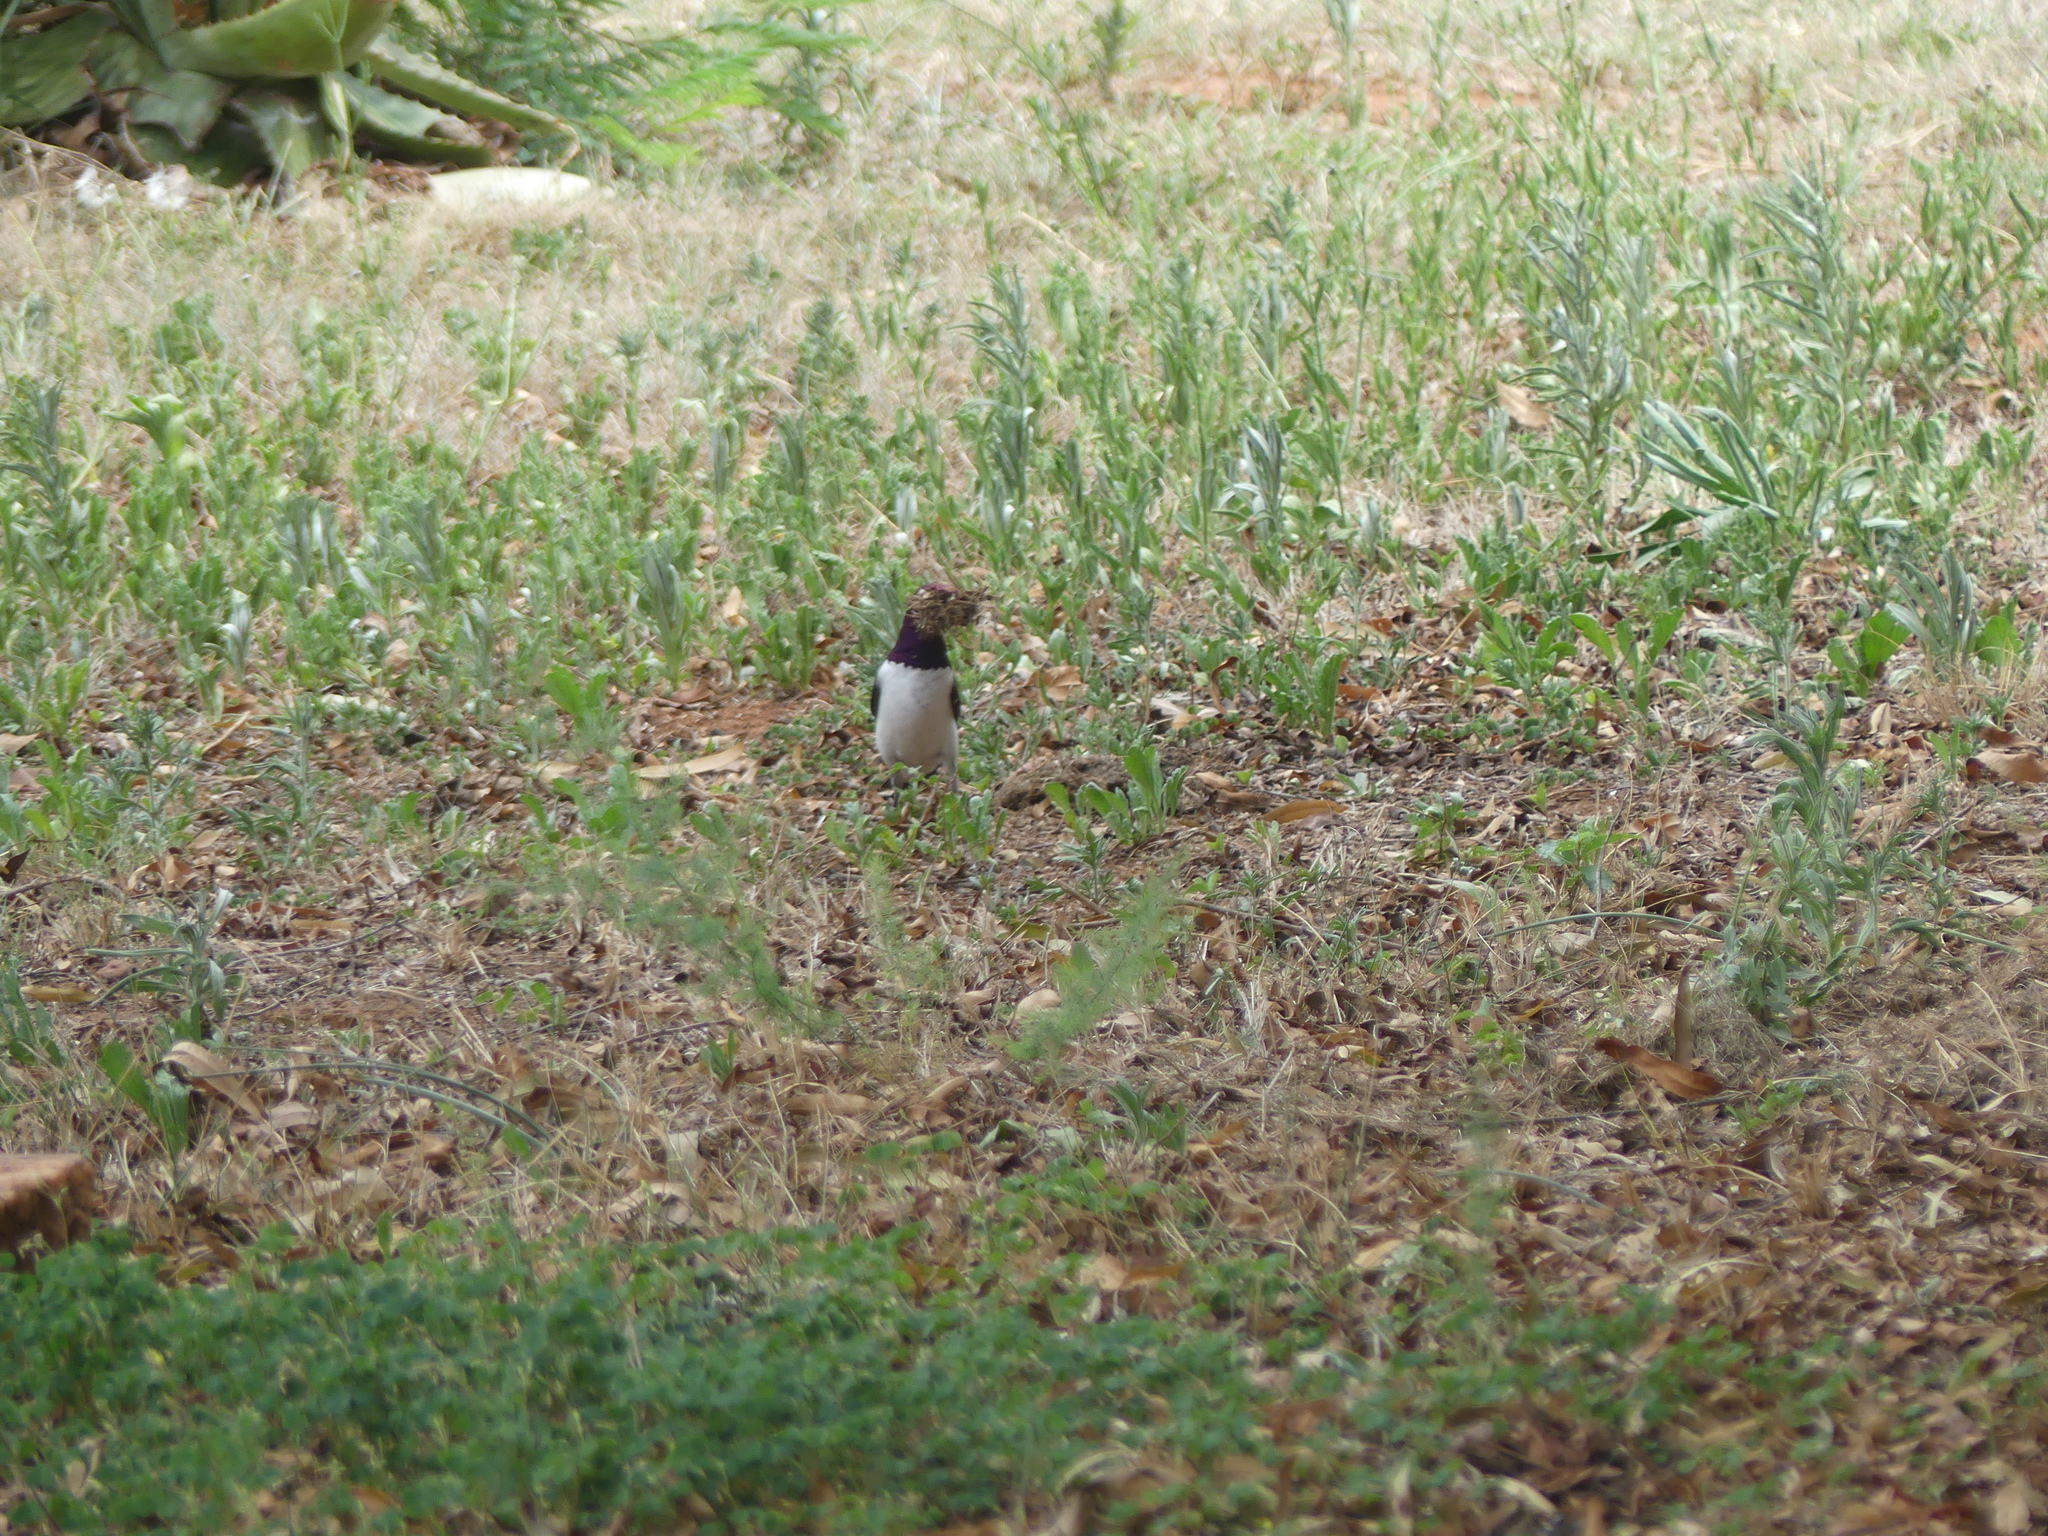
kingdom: Animalia
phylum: Chordata
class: Aves
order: Passeriformes
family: Sturnidae
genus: Cinnyricinclus
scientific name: Cinnyricinclus leucogaster
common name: Violet-backed starling
